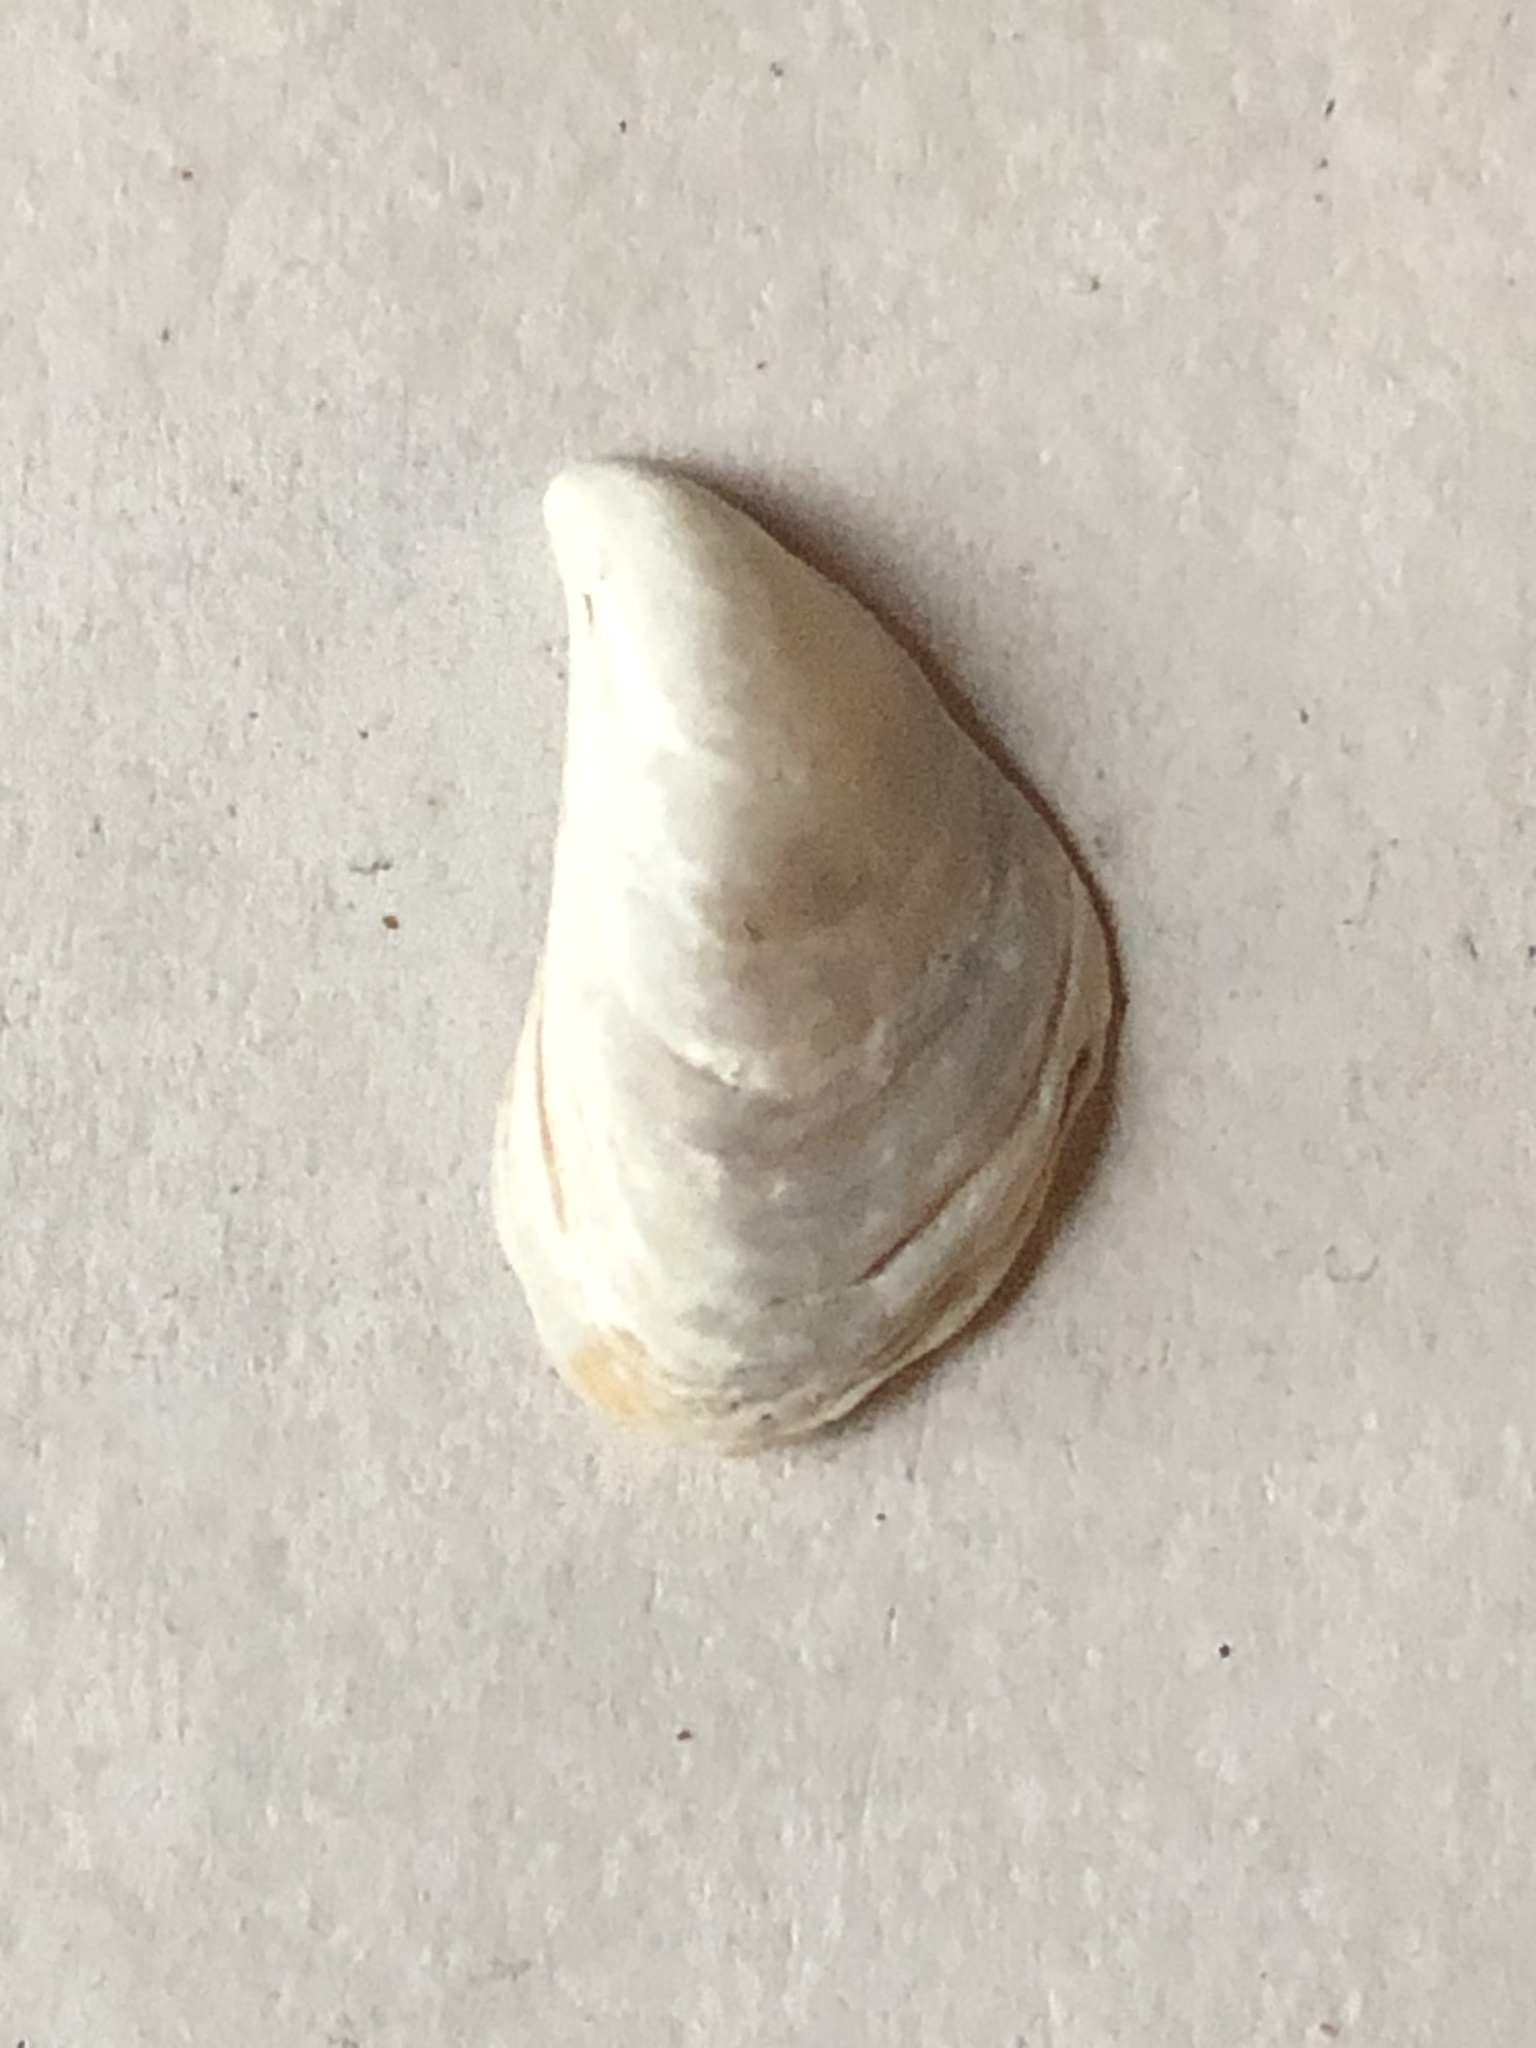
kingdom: Animalia
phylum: Mollusca
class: Bivalvia
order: Myida
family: Dreissenidae
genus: Dreissena
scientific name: Dreissena bugensis
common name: Quagga mussel
